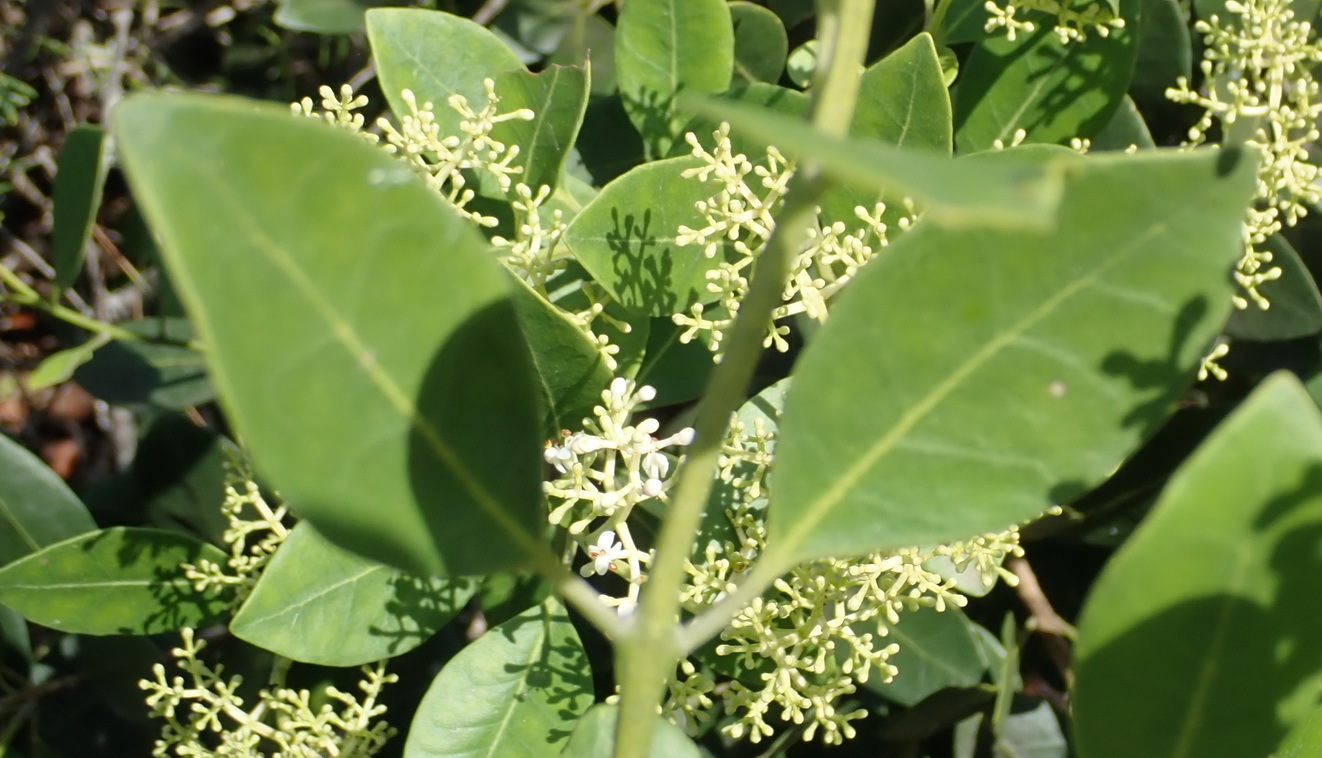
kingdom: Plantae
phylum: Tracheophyta
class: Magnoliopsida
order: Lamiales
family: Oleaceae
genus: Olea
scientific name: Olea capensis
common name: Black ironwood
